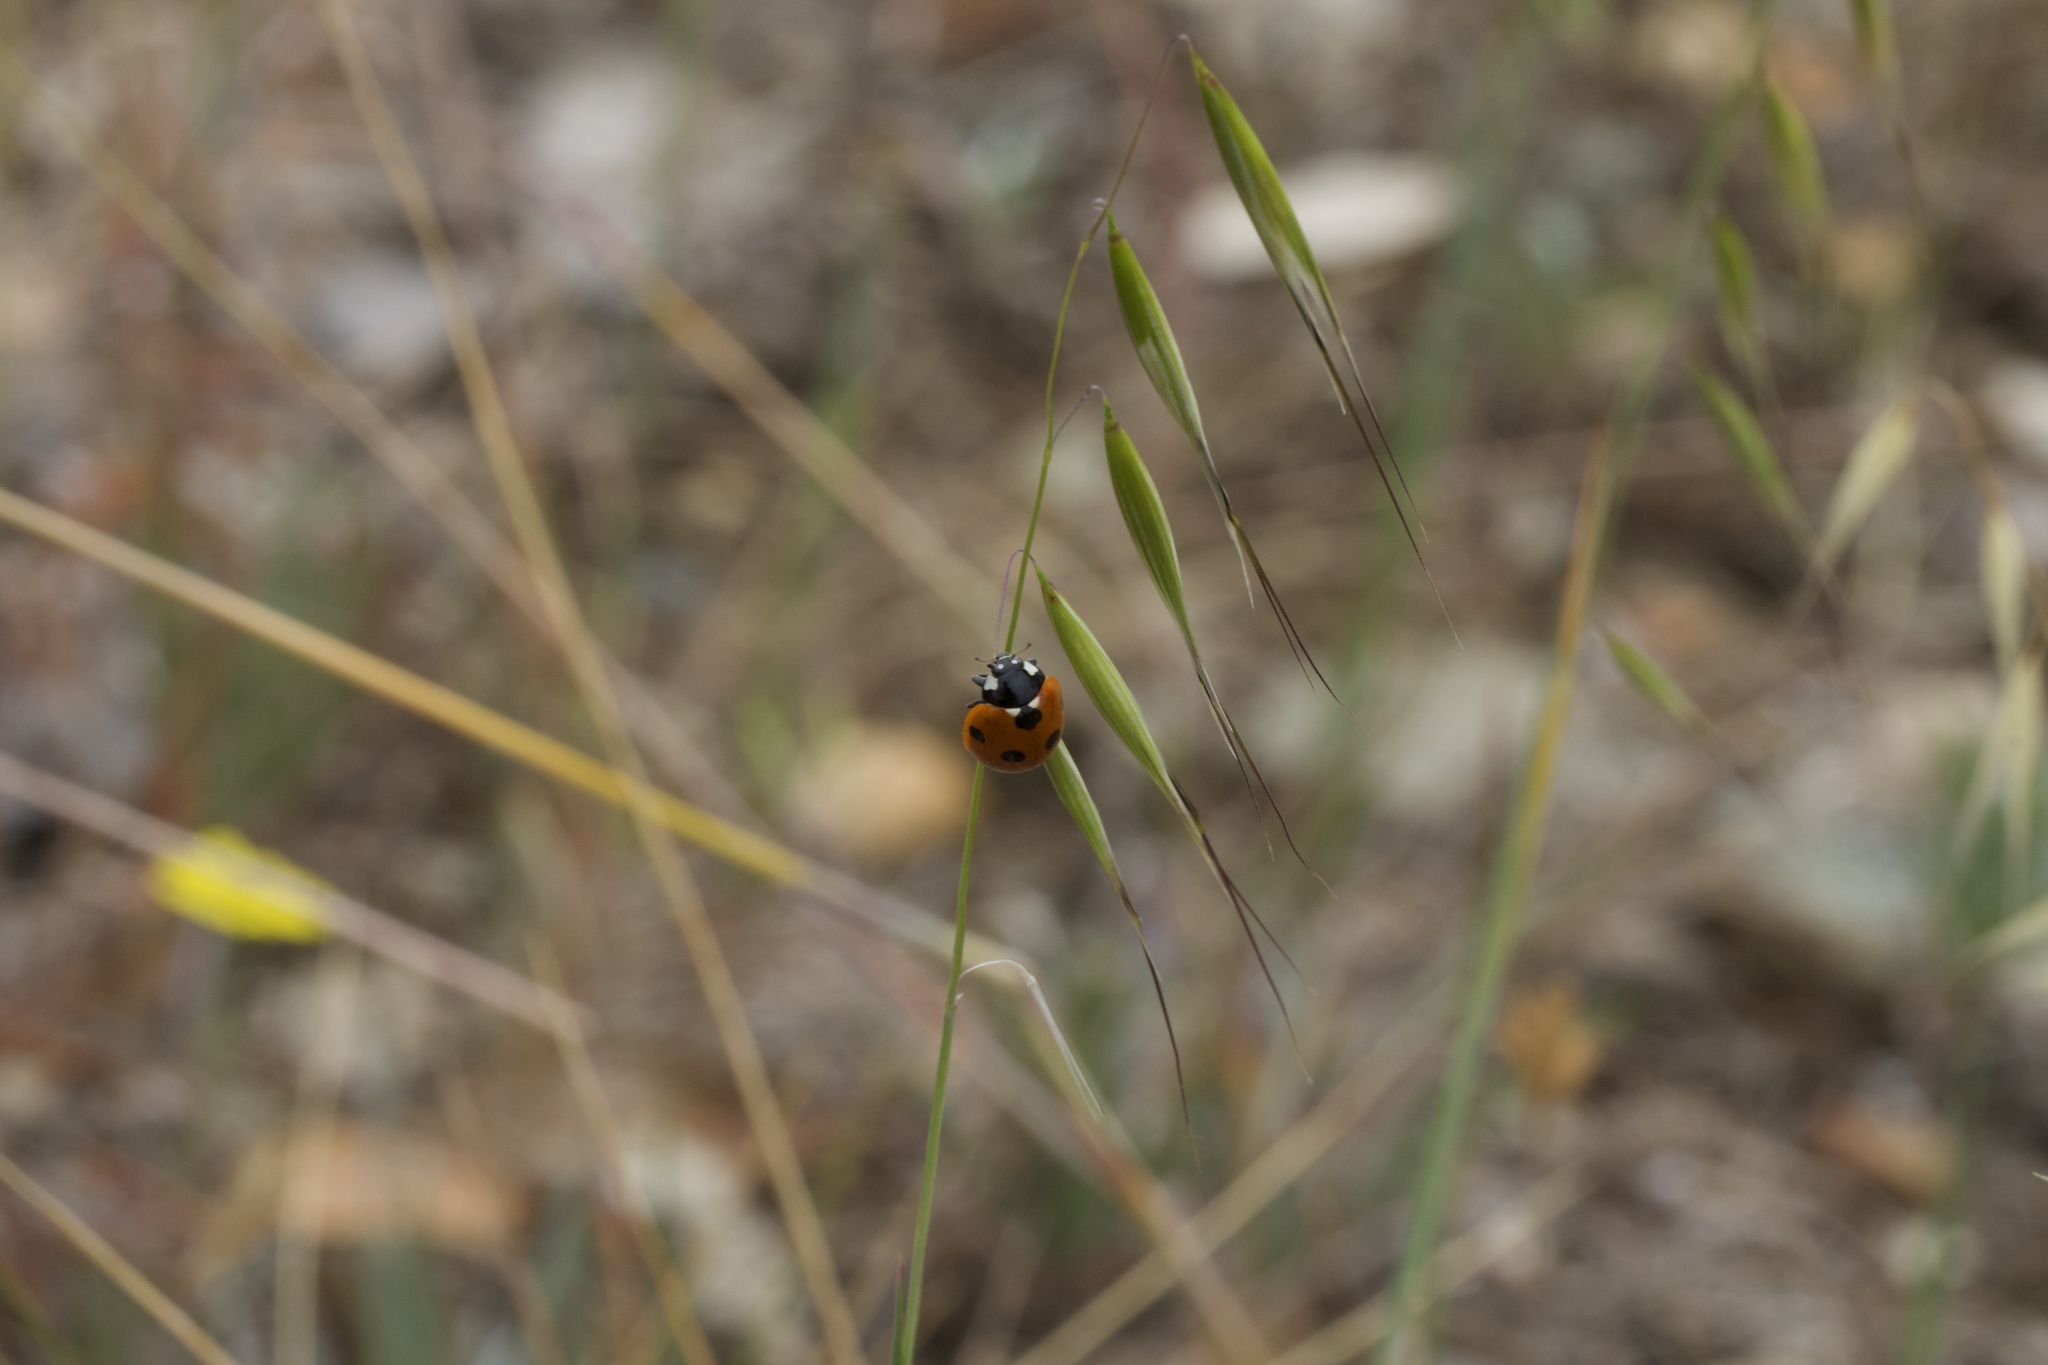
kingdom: Animalia
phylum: Arthropoda
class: Insecta
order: Coleoptera
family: Coccinellidae
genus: Coccinella
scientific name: Coccinella septempunctata
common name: Sevenspotted lady beetle
